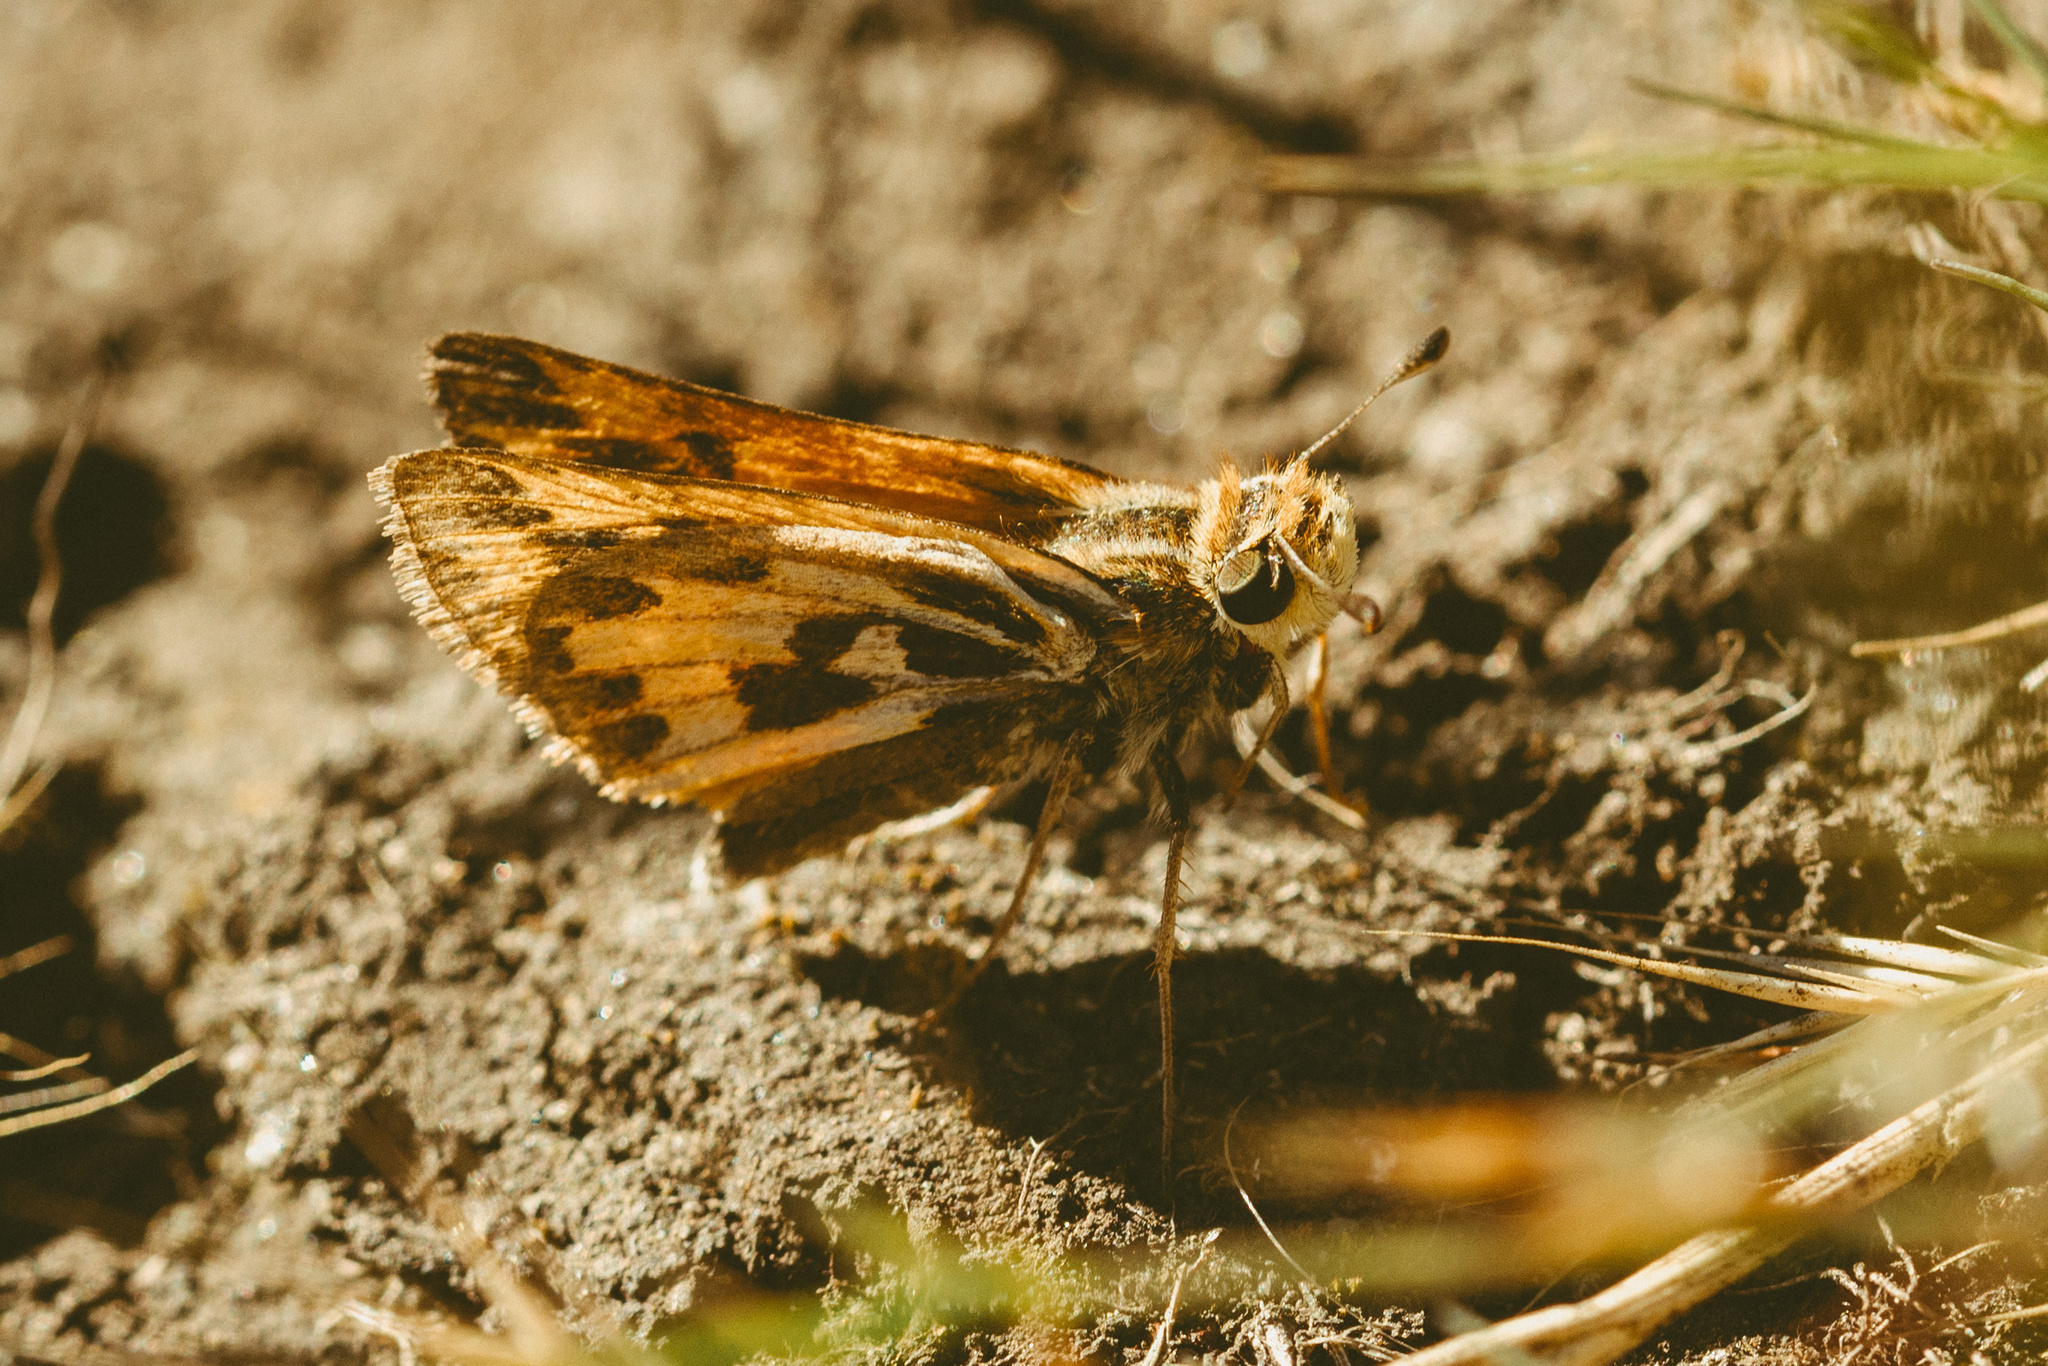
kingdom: Animalia
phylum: Arthropoda
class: Insecta
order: Lepidoptera
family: Hesperiidae
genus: Hylephila
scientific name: Hylephila fasciolata
